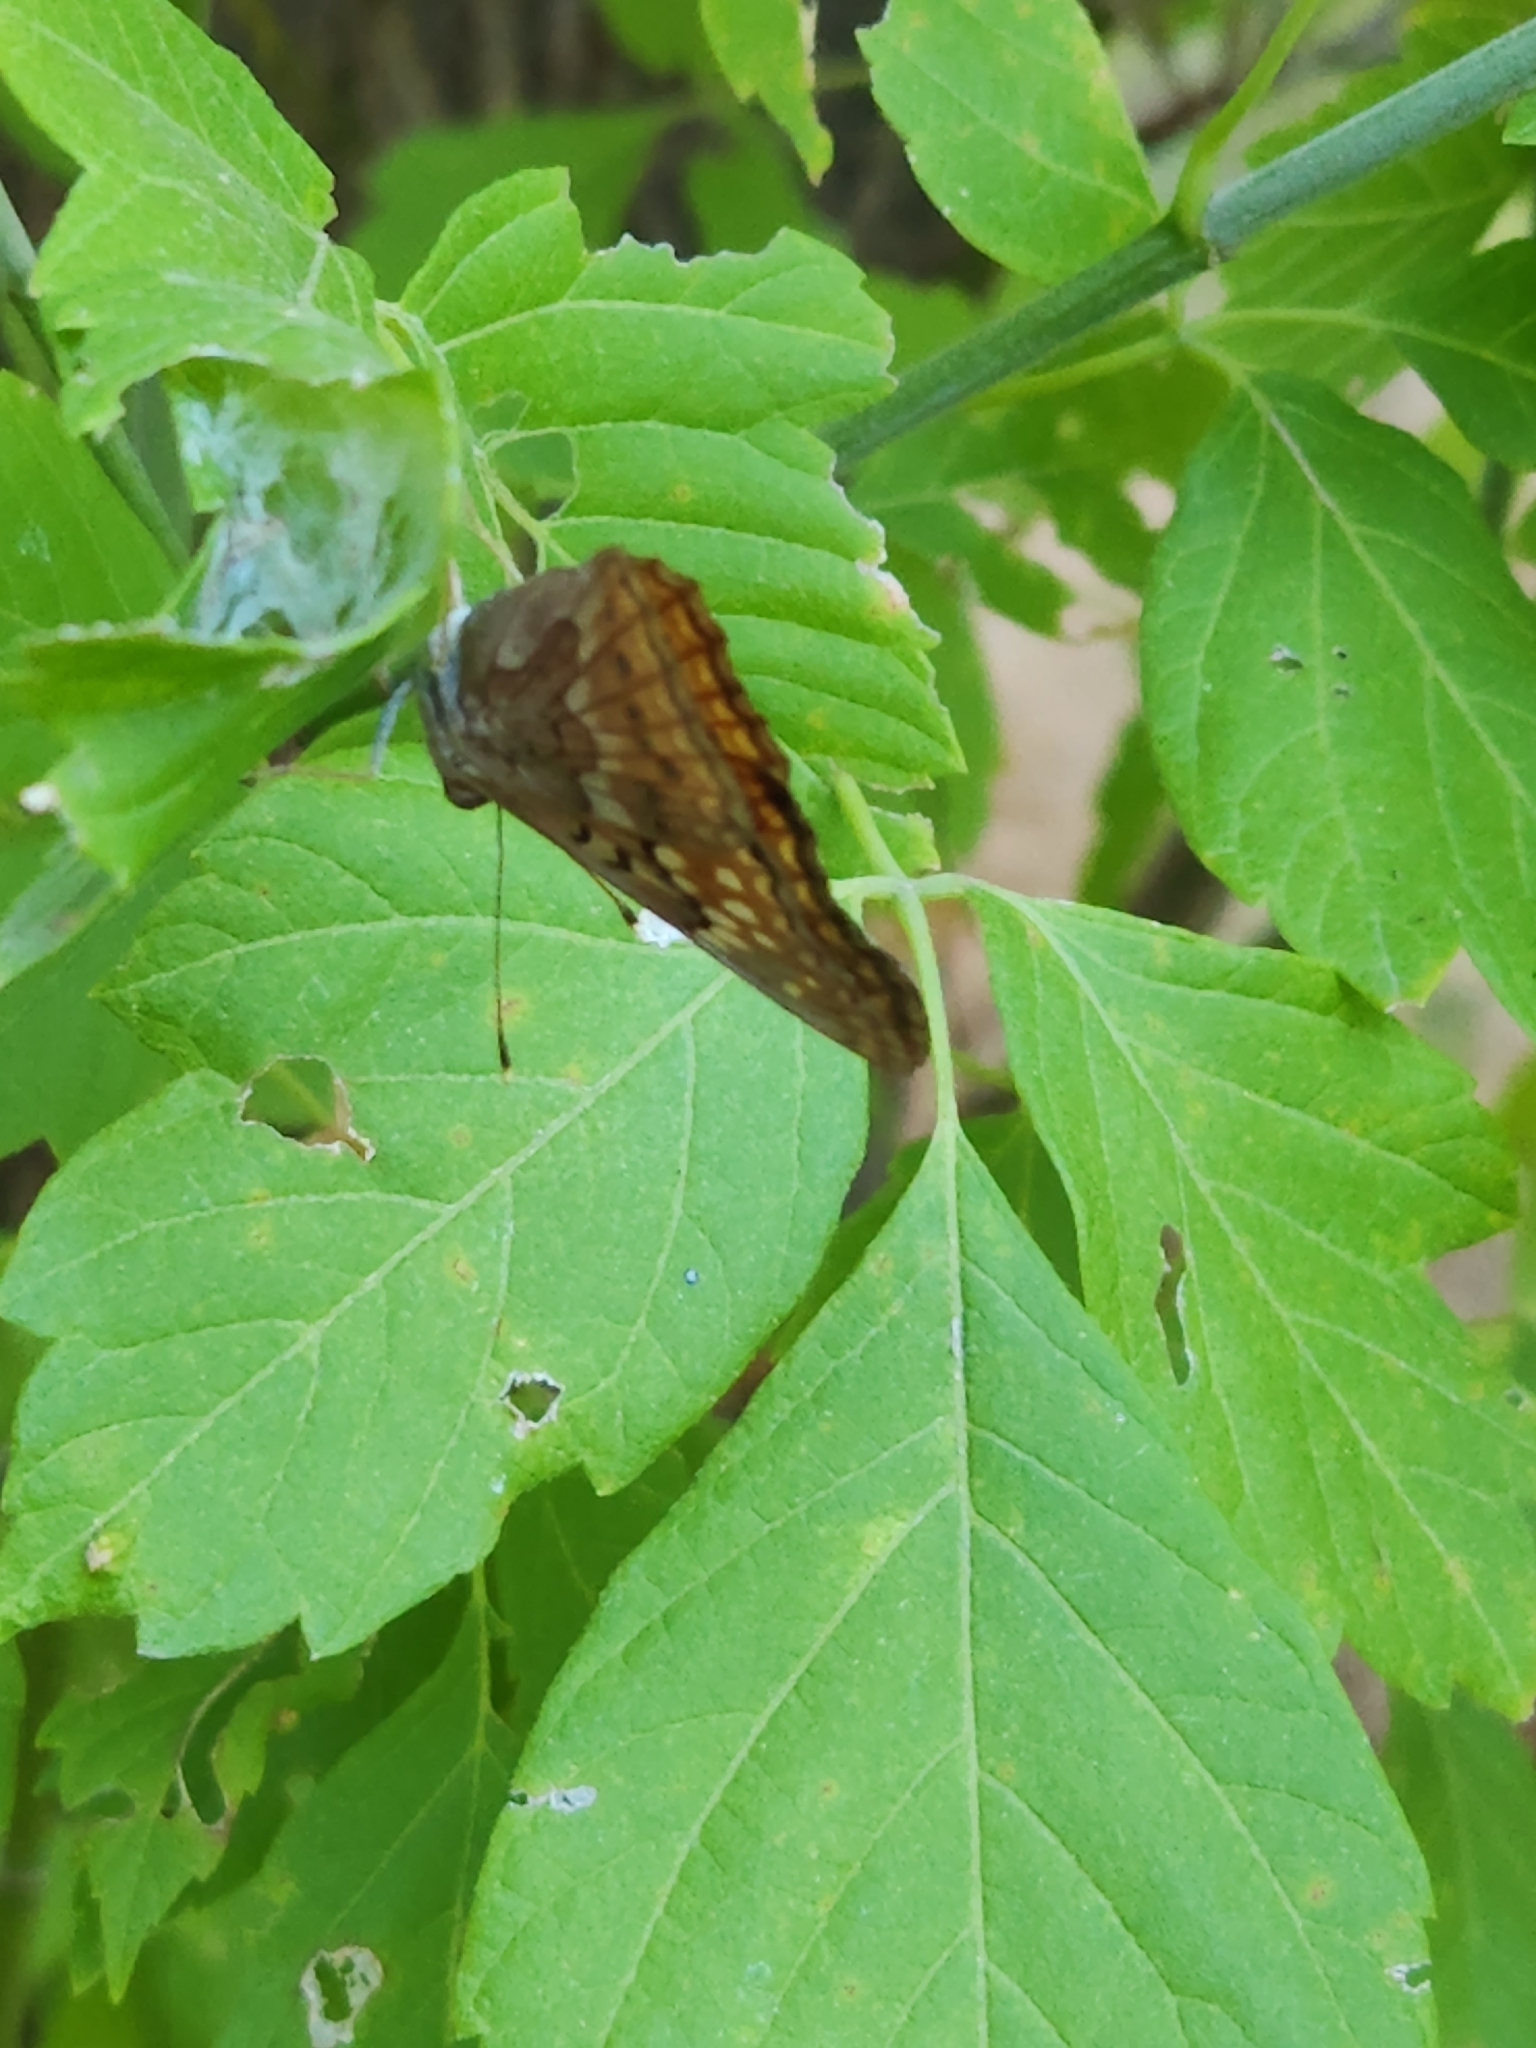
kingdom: Animalia
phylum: Arthropoda
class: Insecta
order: Lepidoptera
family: Nymphalidae
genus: Asterocampa
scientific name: Asterocampa clyton
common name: Tawny emperor
